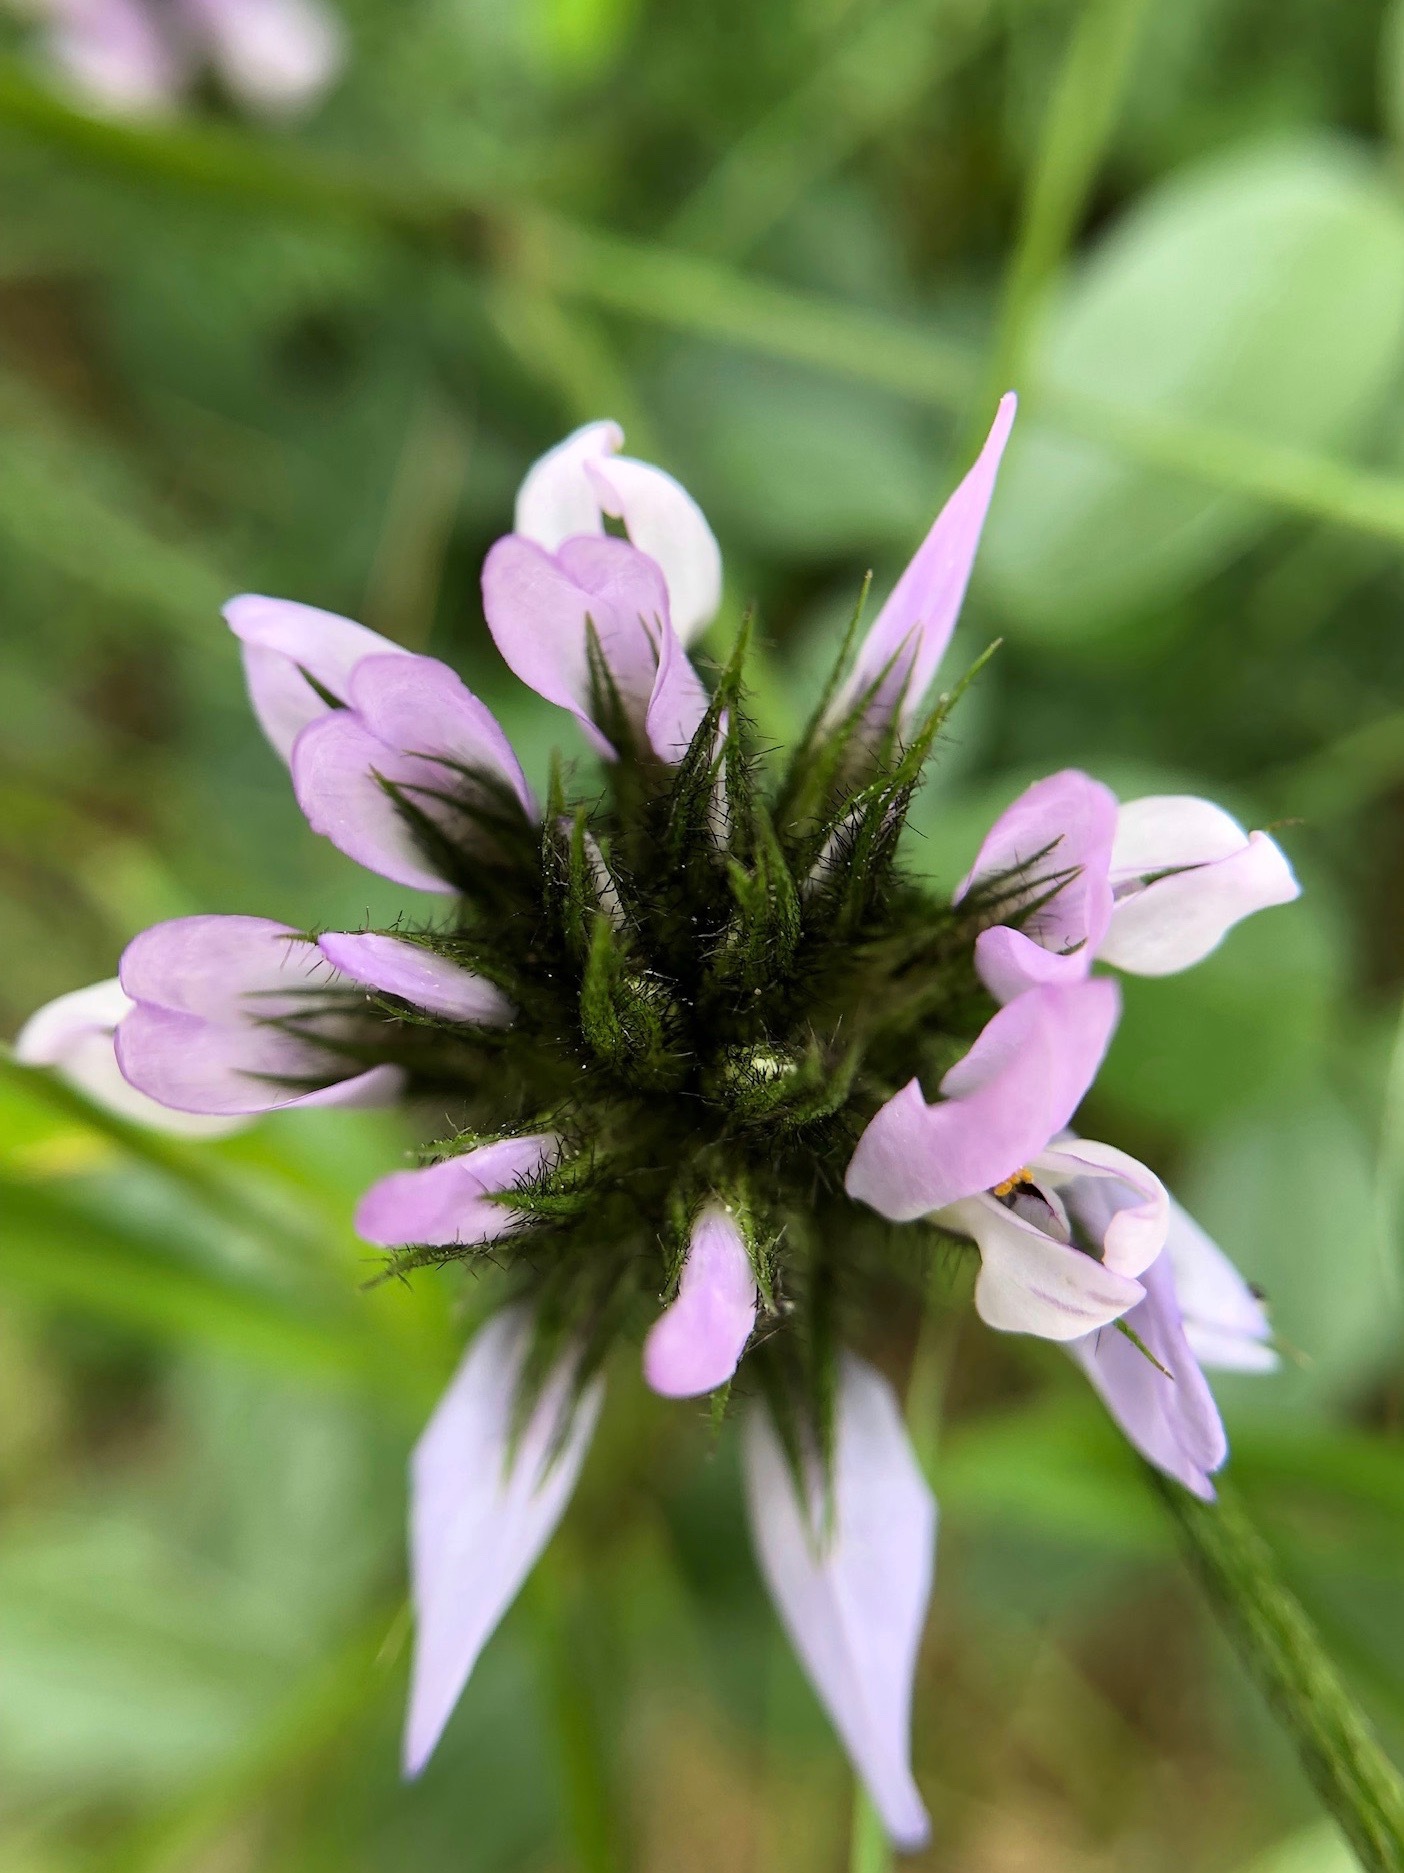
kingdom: Plantae
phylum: Tracheophyta
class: Magnoliopsida
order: Fabales
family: Fabaceae
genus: Bituminaria
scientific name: Bituminaria bituminosa
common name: Arabian pea
